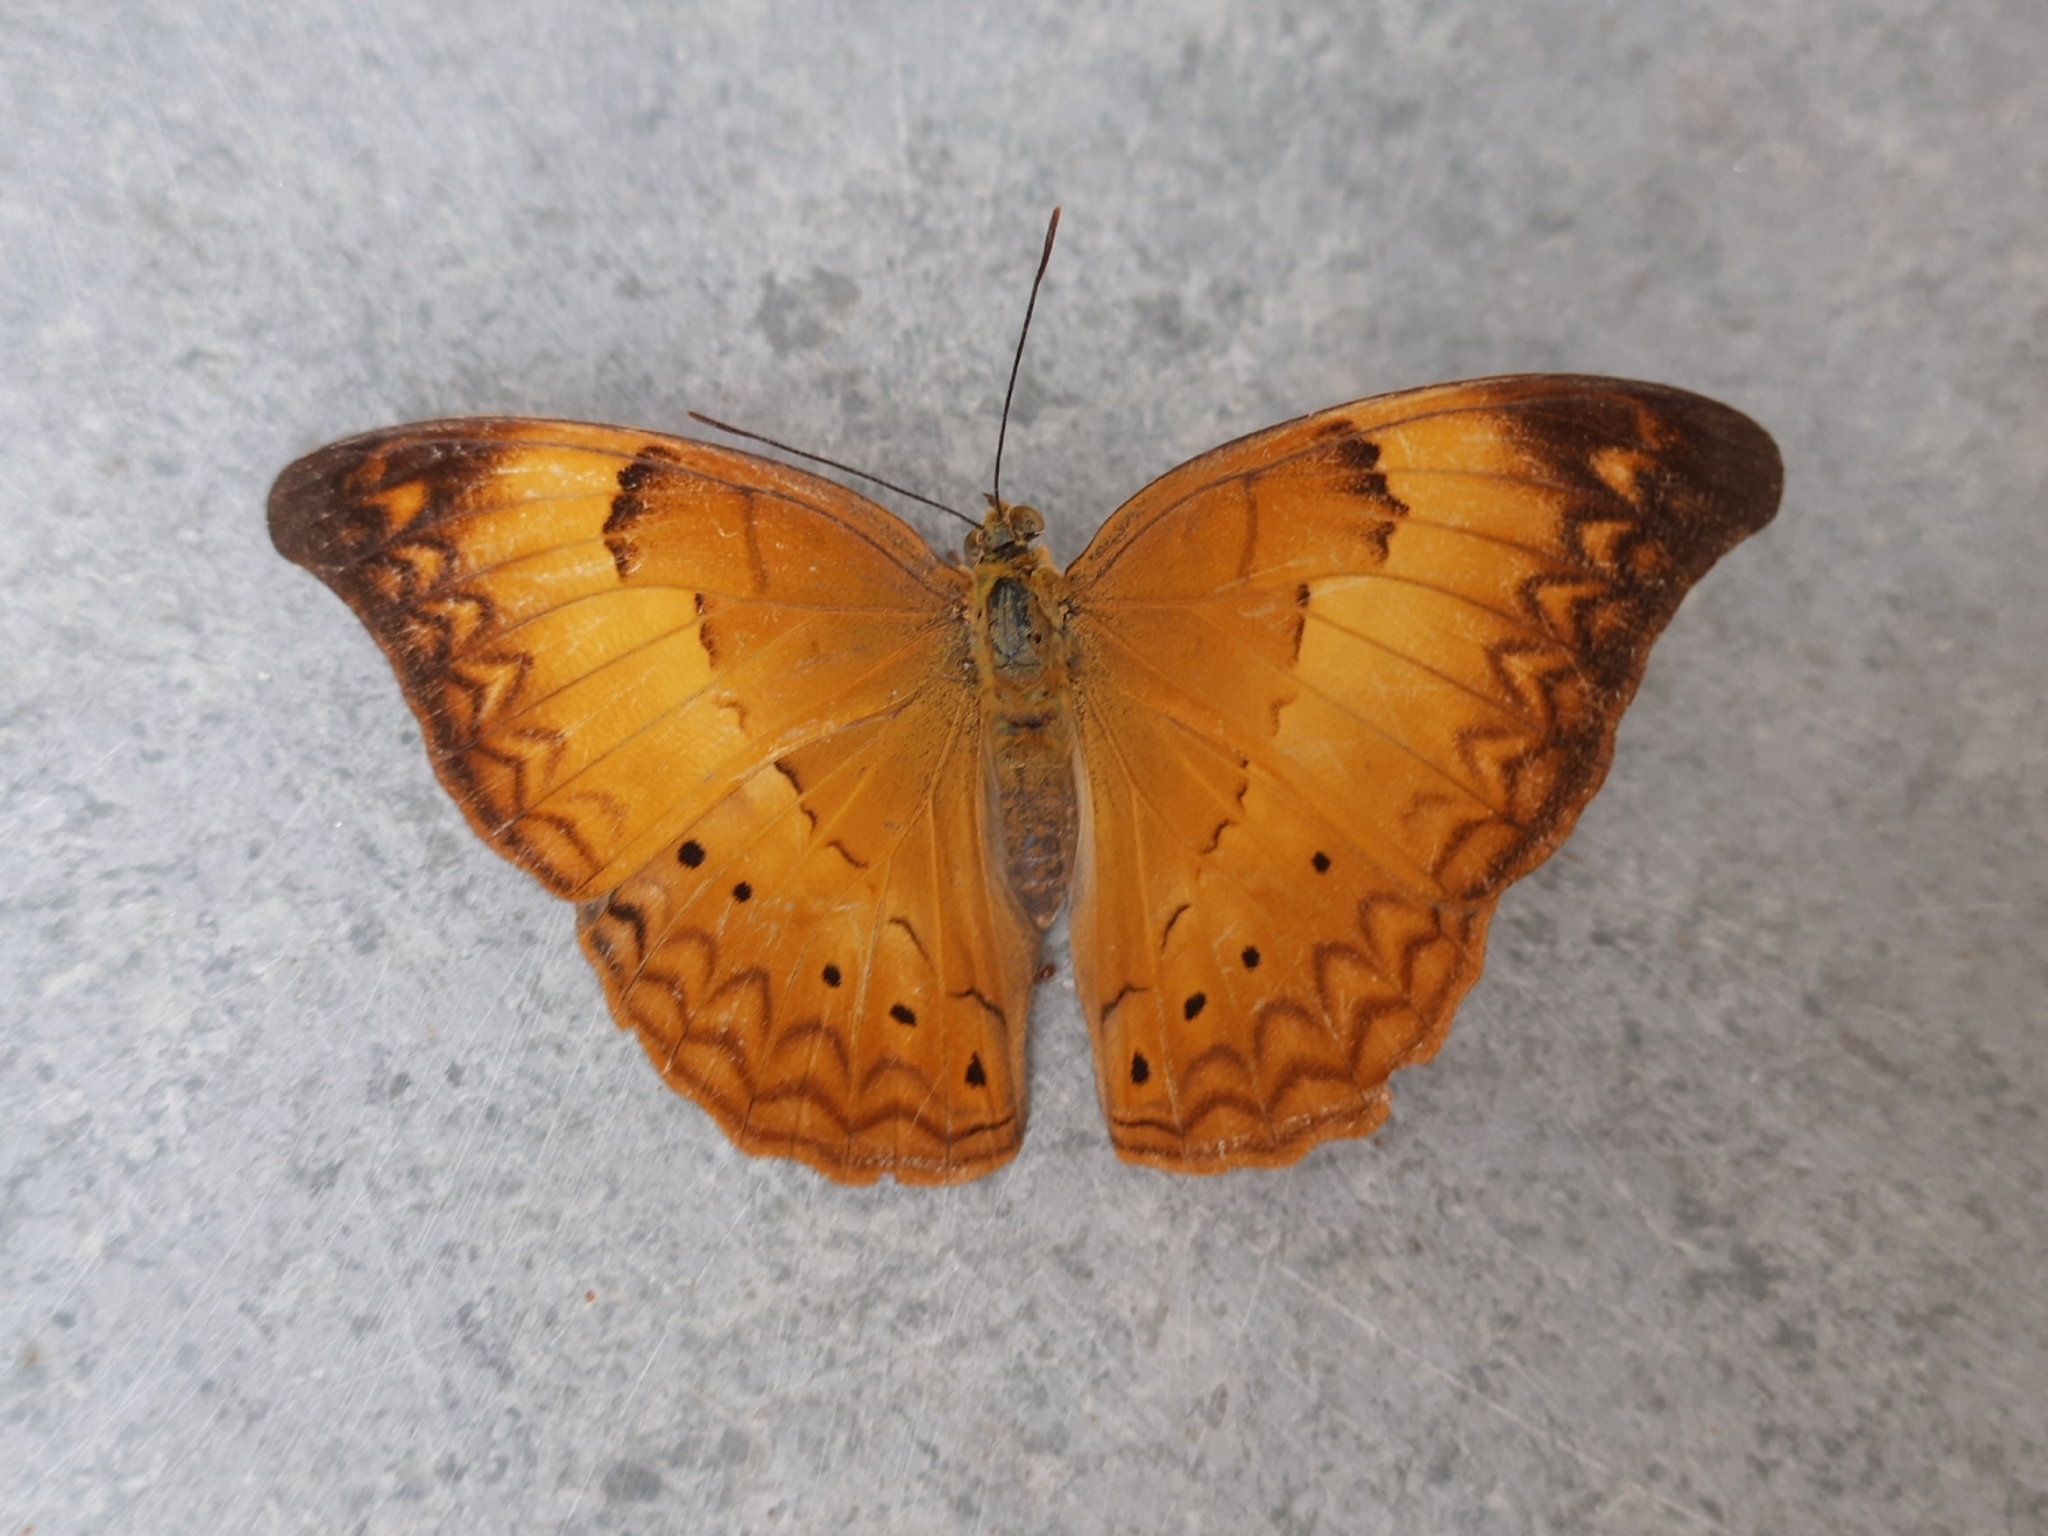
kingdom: Animalia
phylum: Arthropoda
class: Insecta
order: Lepidoptera
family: Nymphalidae
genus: Cirrochroa
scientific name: Cirrochroa thais
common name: Tamil yeoman
